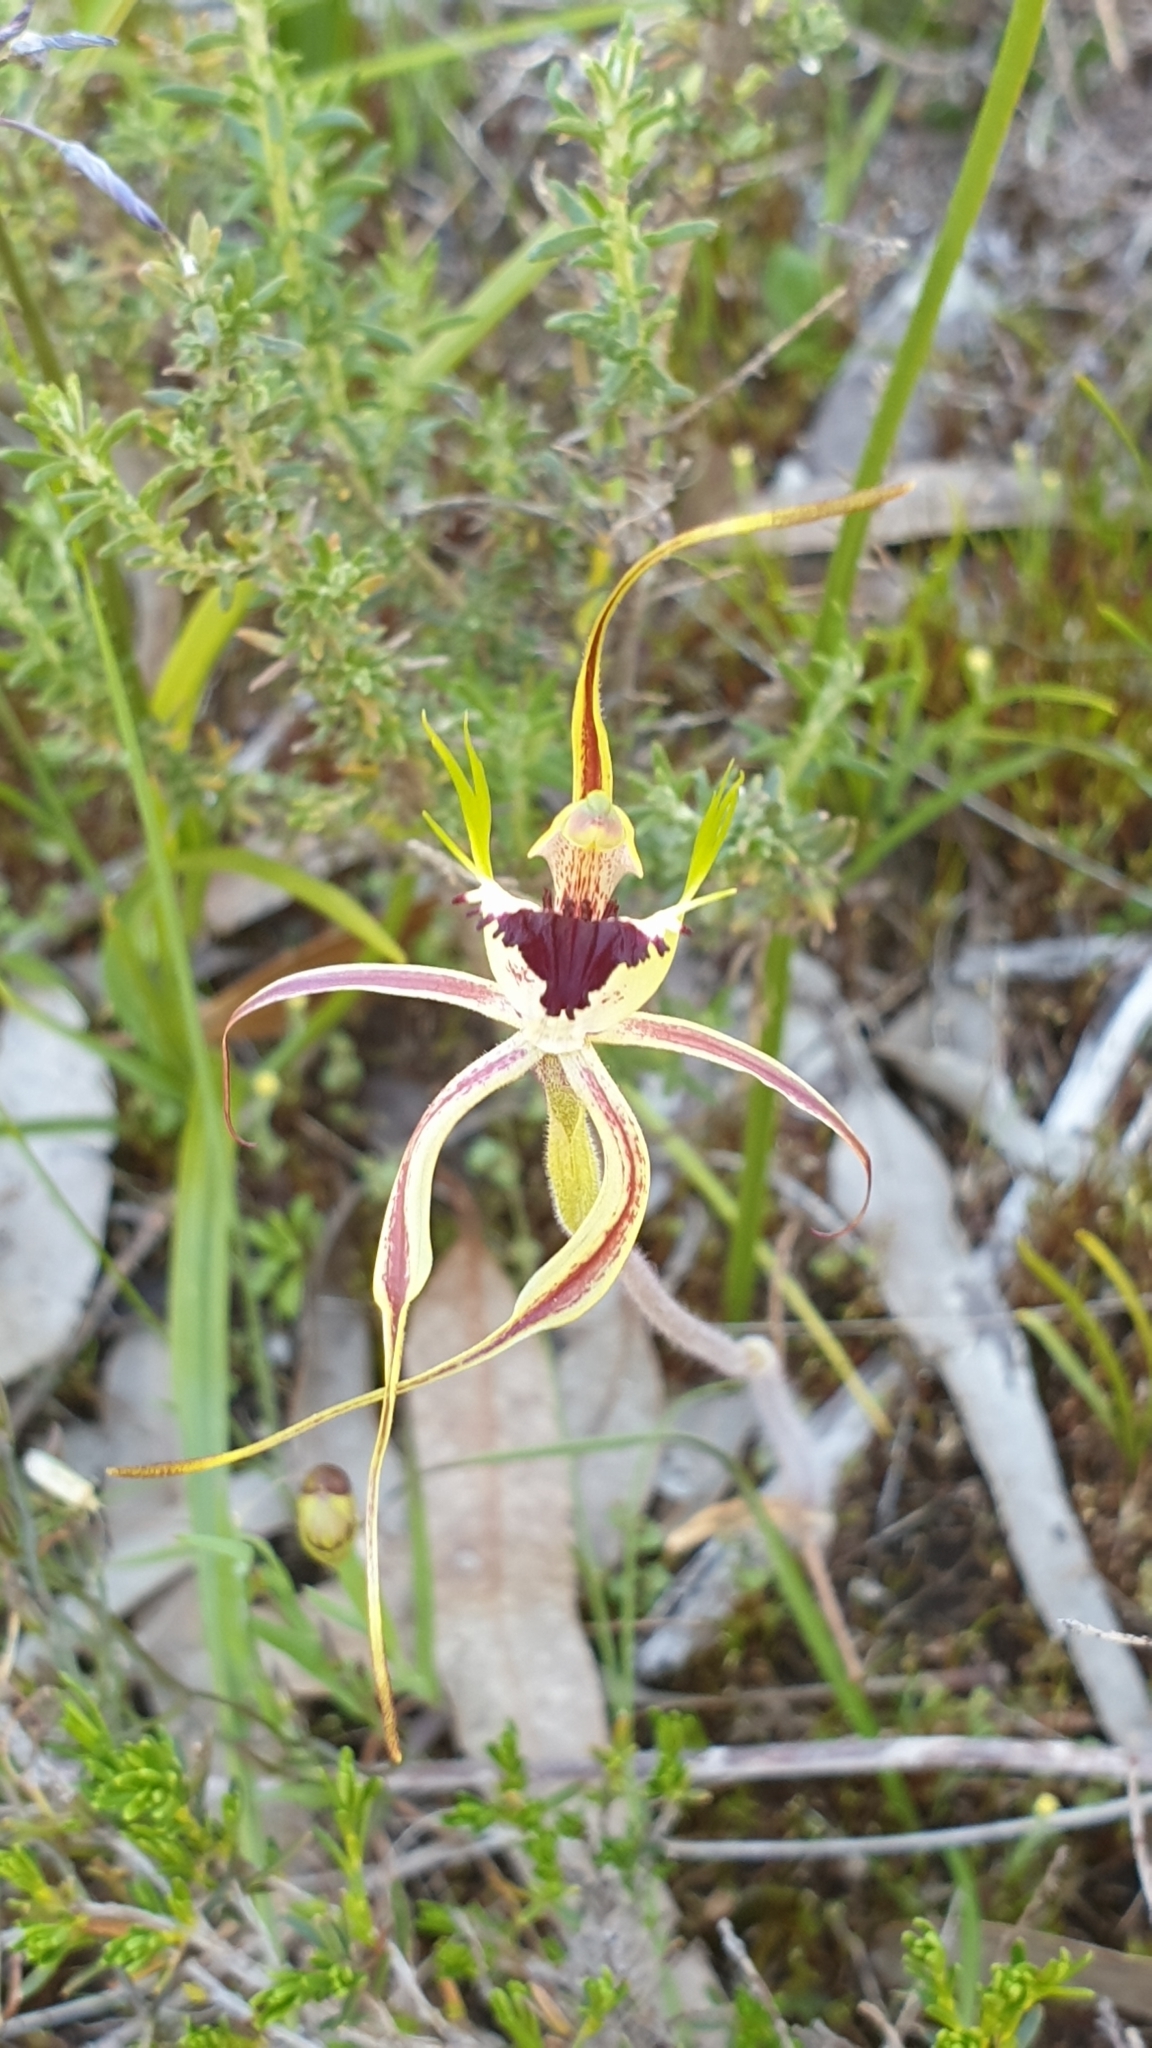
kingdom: Plantae
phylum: Tracheophyta
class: Liliopsida
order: Asparagales
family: Orchidaceae
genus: Caladenia
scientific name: Caladenia tentaculata
